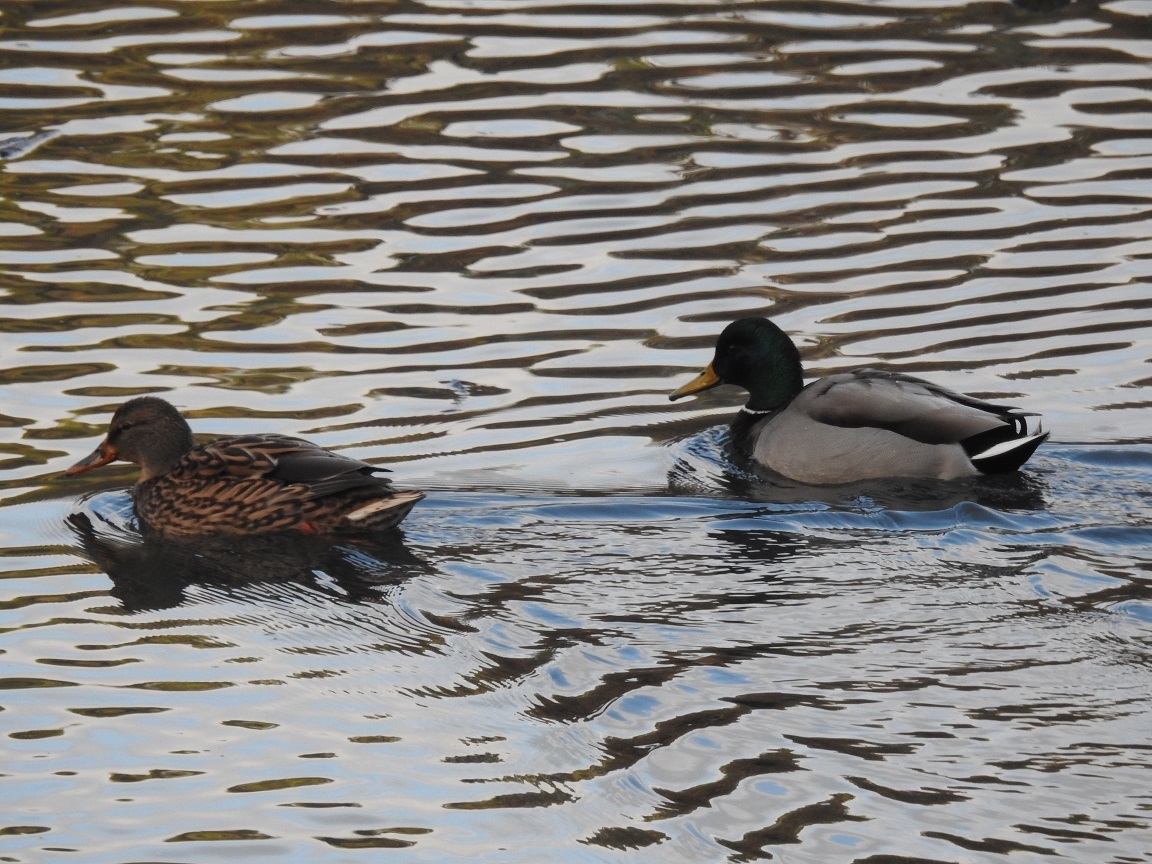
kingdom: Animalia
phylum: Chordata
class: Aves
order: Anseriformes
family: Anatidae
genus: Anas
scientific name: Anas platyrhynchos
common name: Mallard
